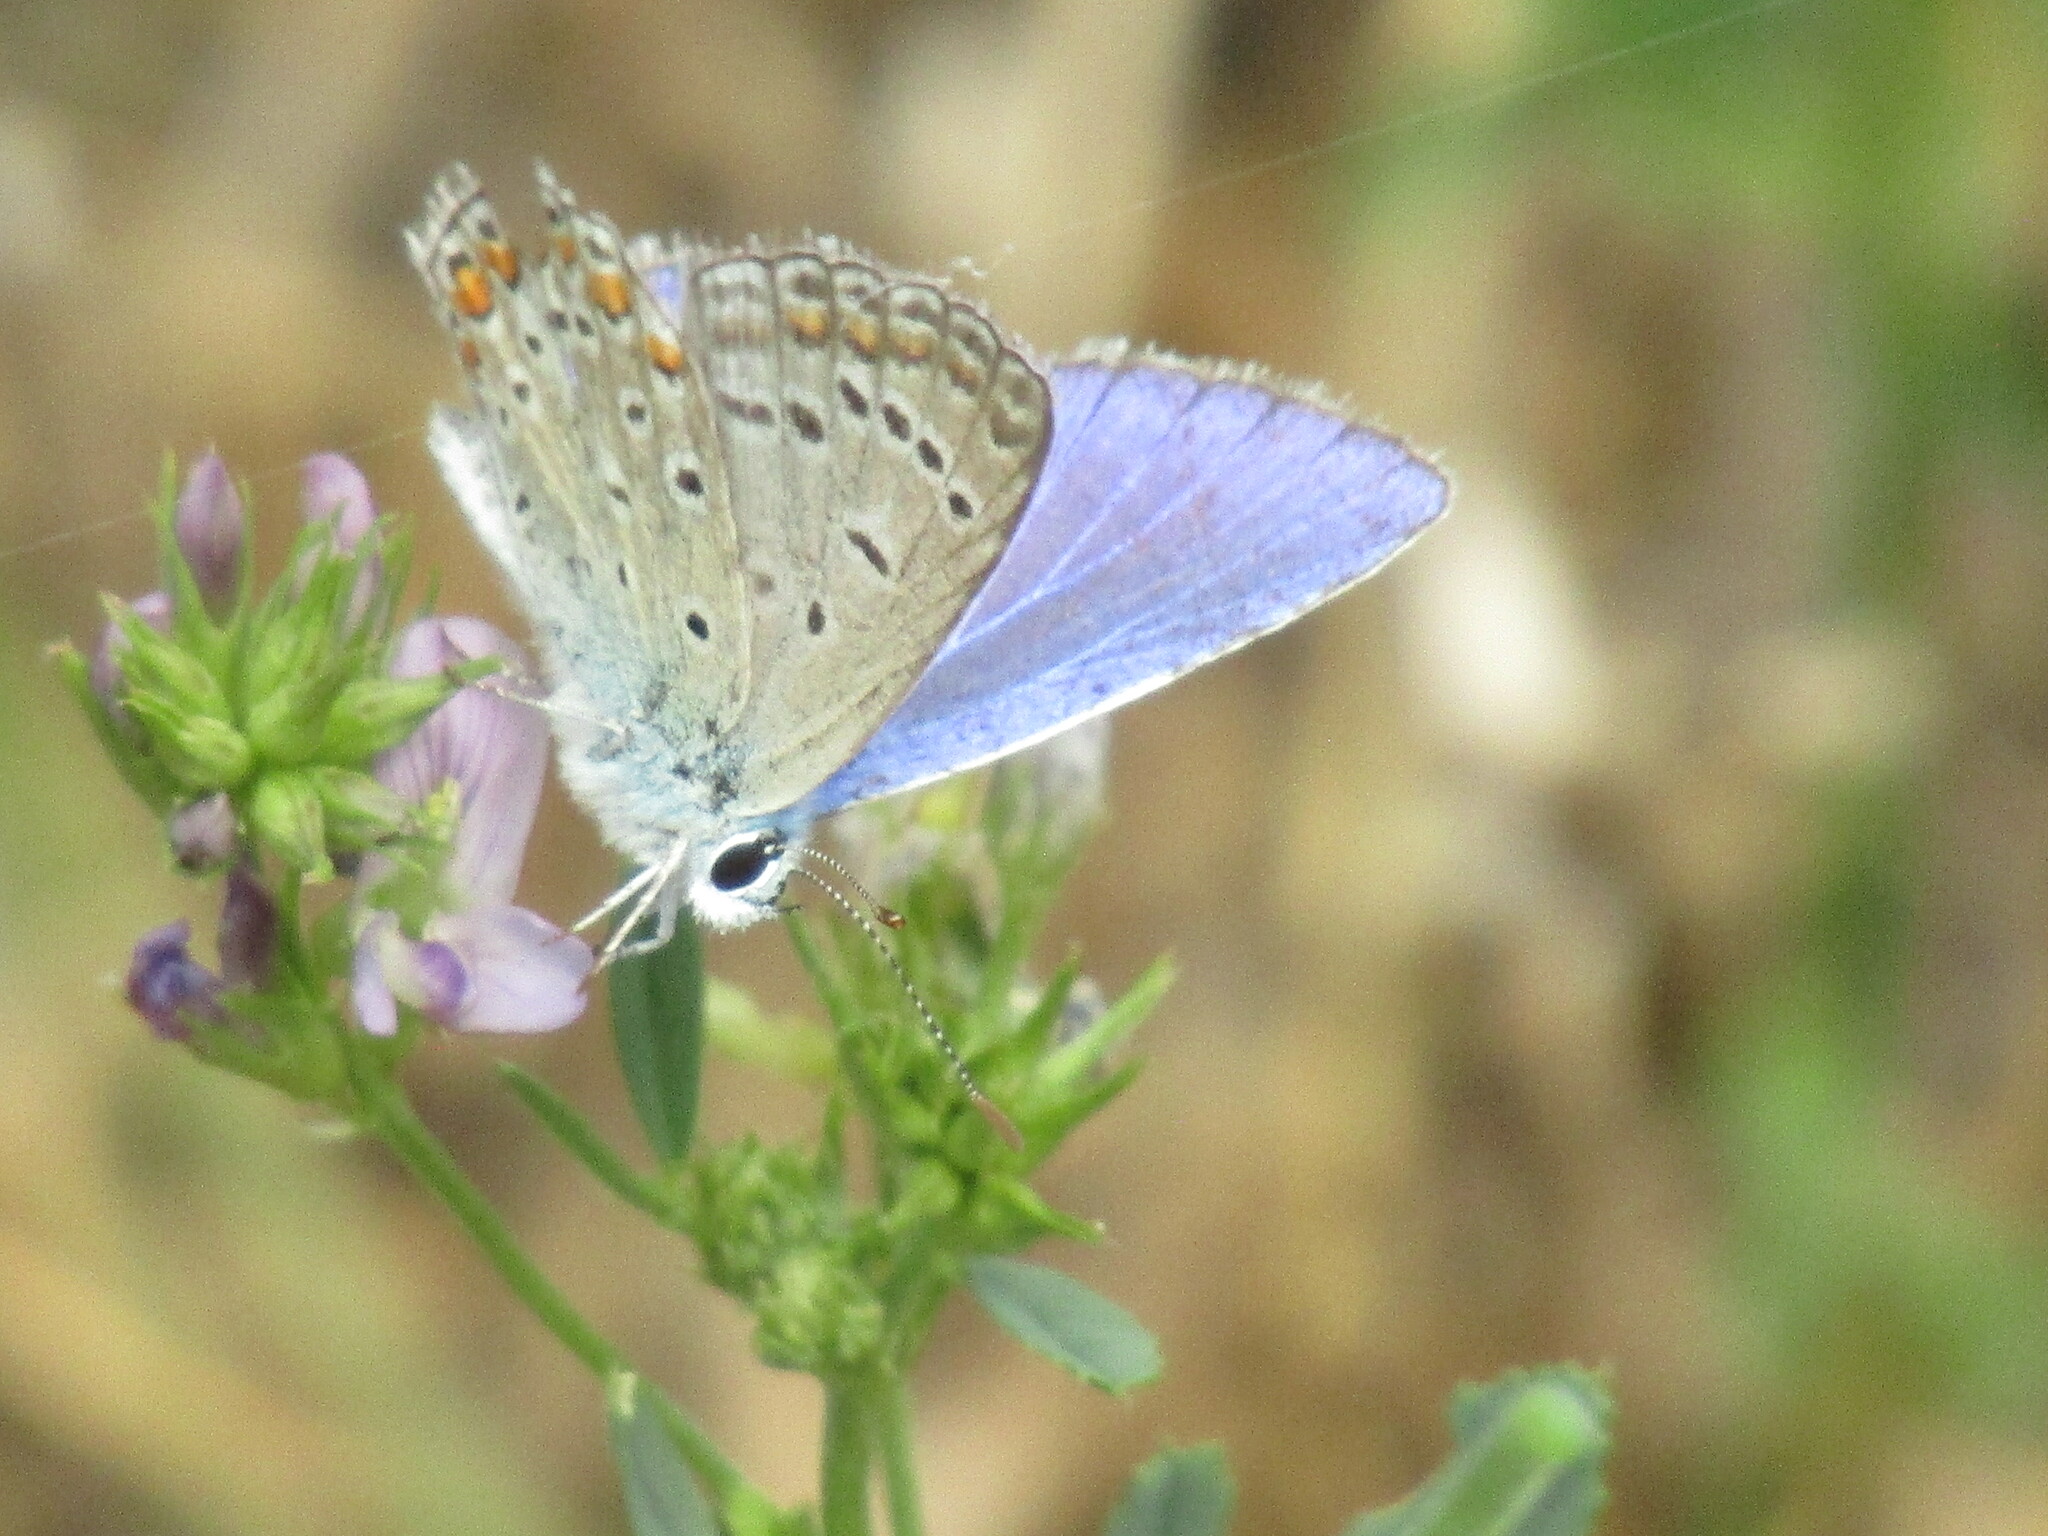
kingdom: Animalia
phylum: Arthropoda
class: Insecta
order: Lepidoptera
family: Lycaenidae
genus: Polyommatus
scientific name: Polyommatus icarus
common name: Common blue
